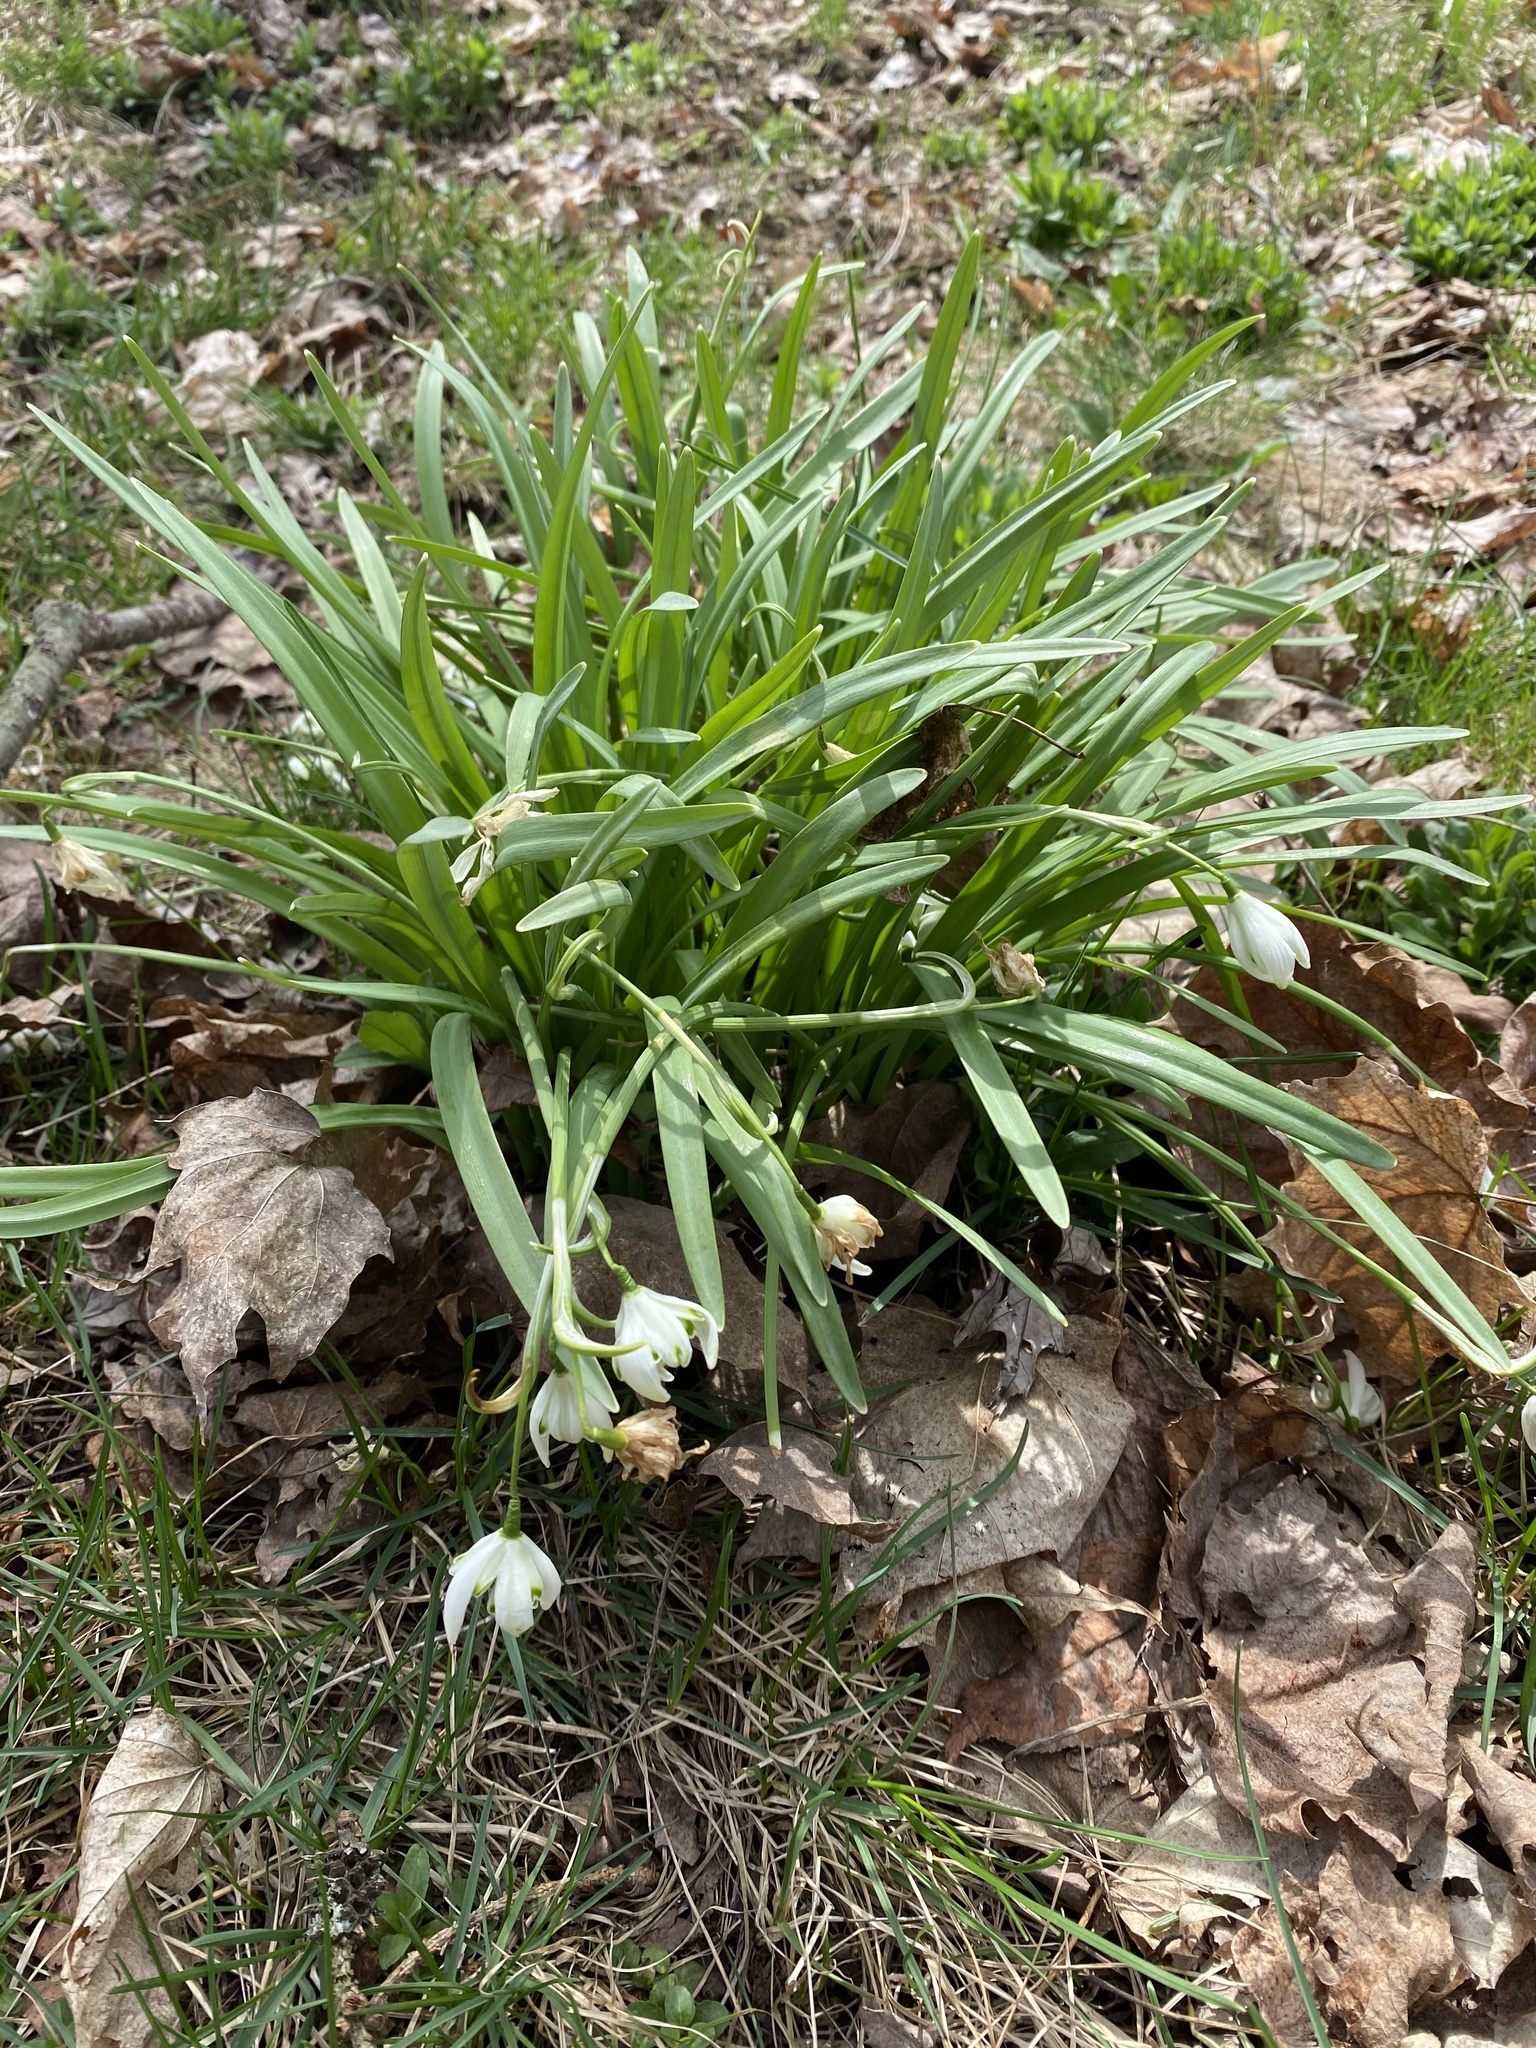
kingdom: Plantae
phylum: Tracheophyta
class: Liliopsida
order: Asparagales
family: Amaryllidaceae
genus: Galanthus
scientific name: Galanthus nivalis
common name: Snowdrop
